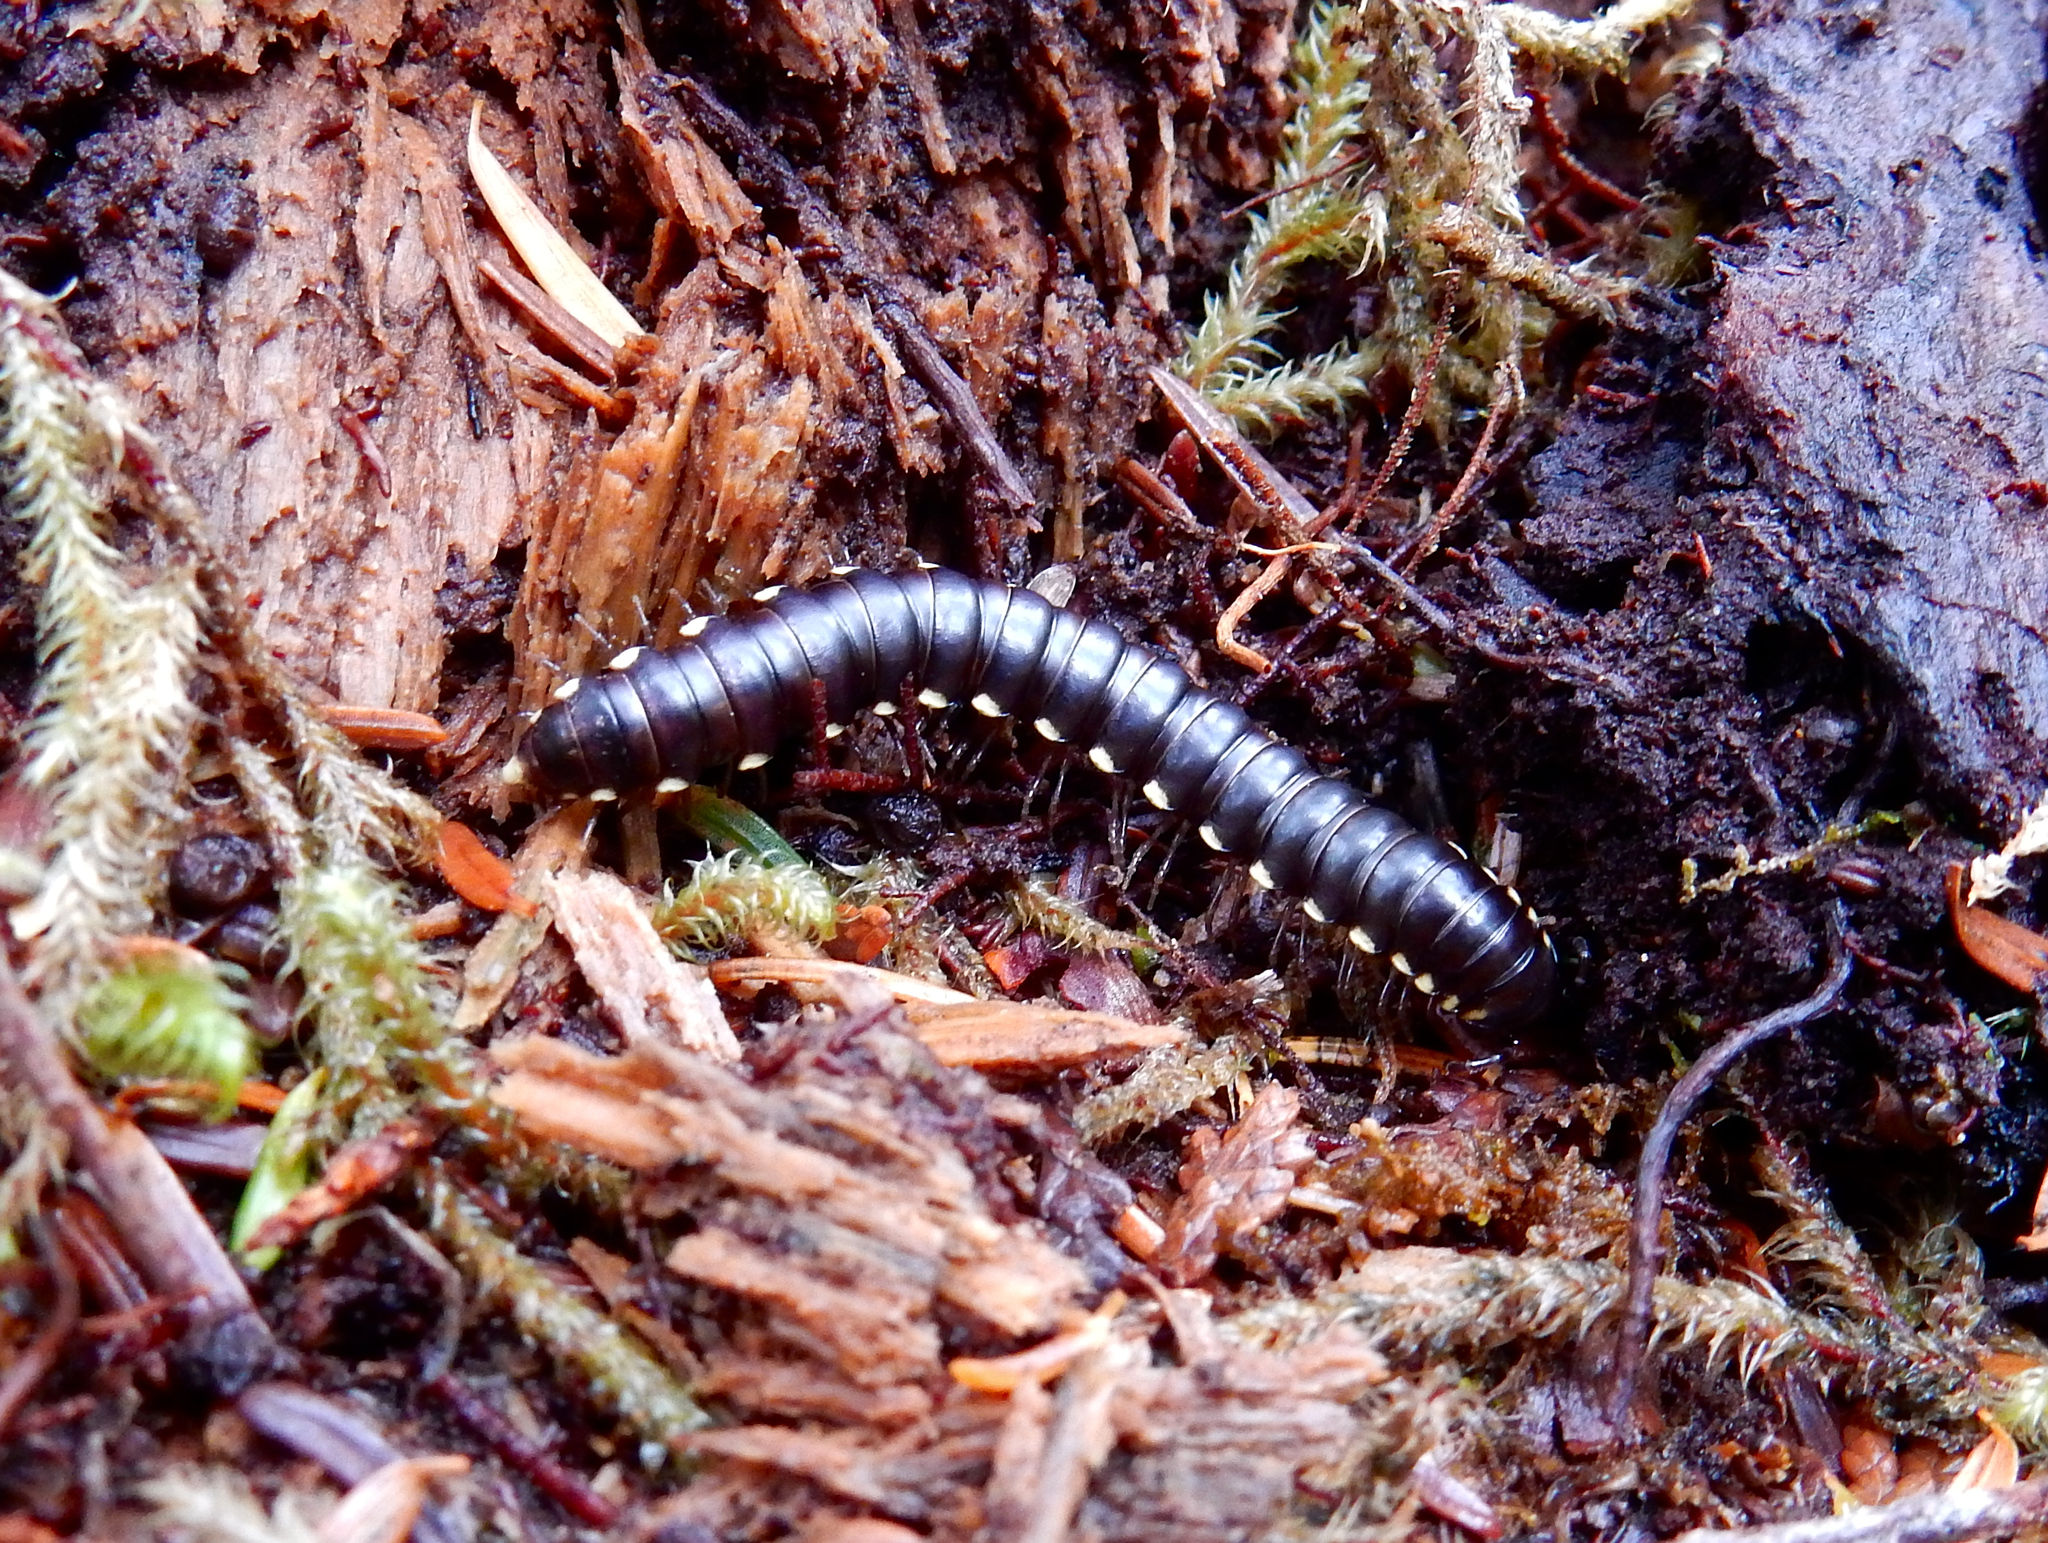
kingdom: Animalia
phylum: Arthropoda
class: Diplopoda
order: Polydesmida
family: Xystodesmidae
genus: Harpaphe
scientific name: Harpaphe haydeniana
